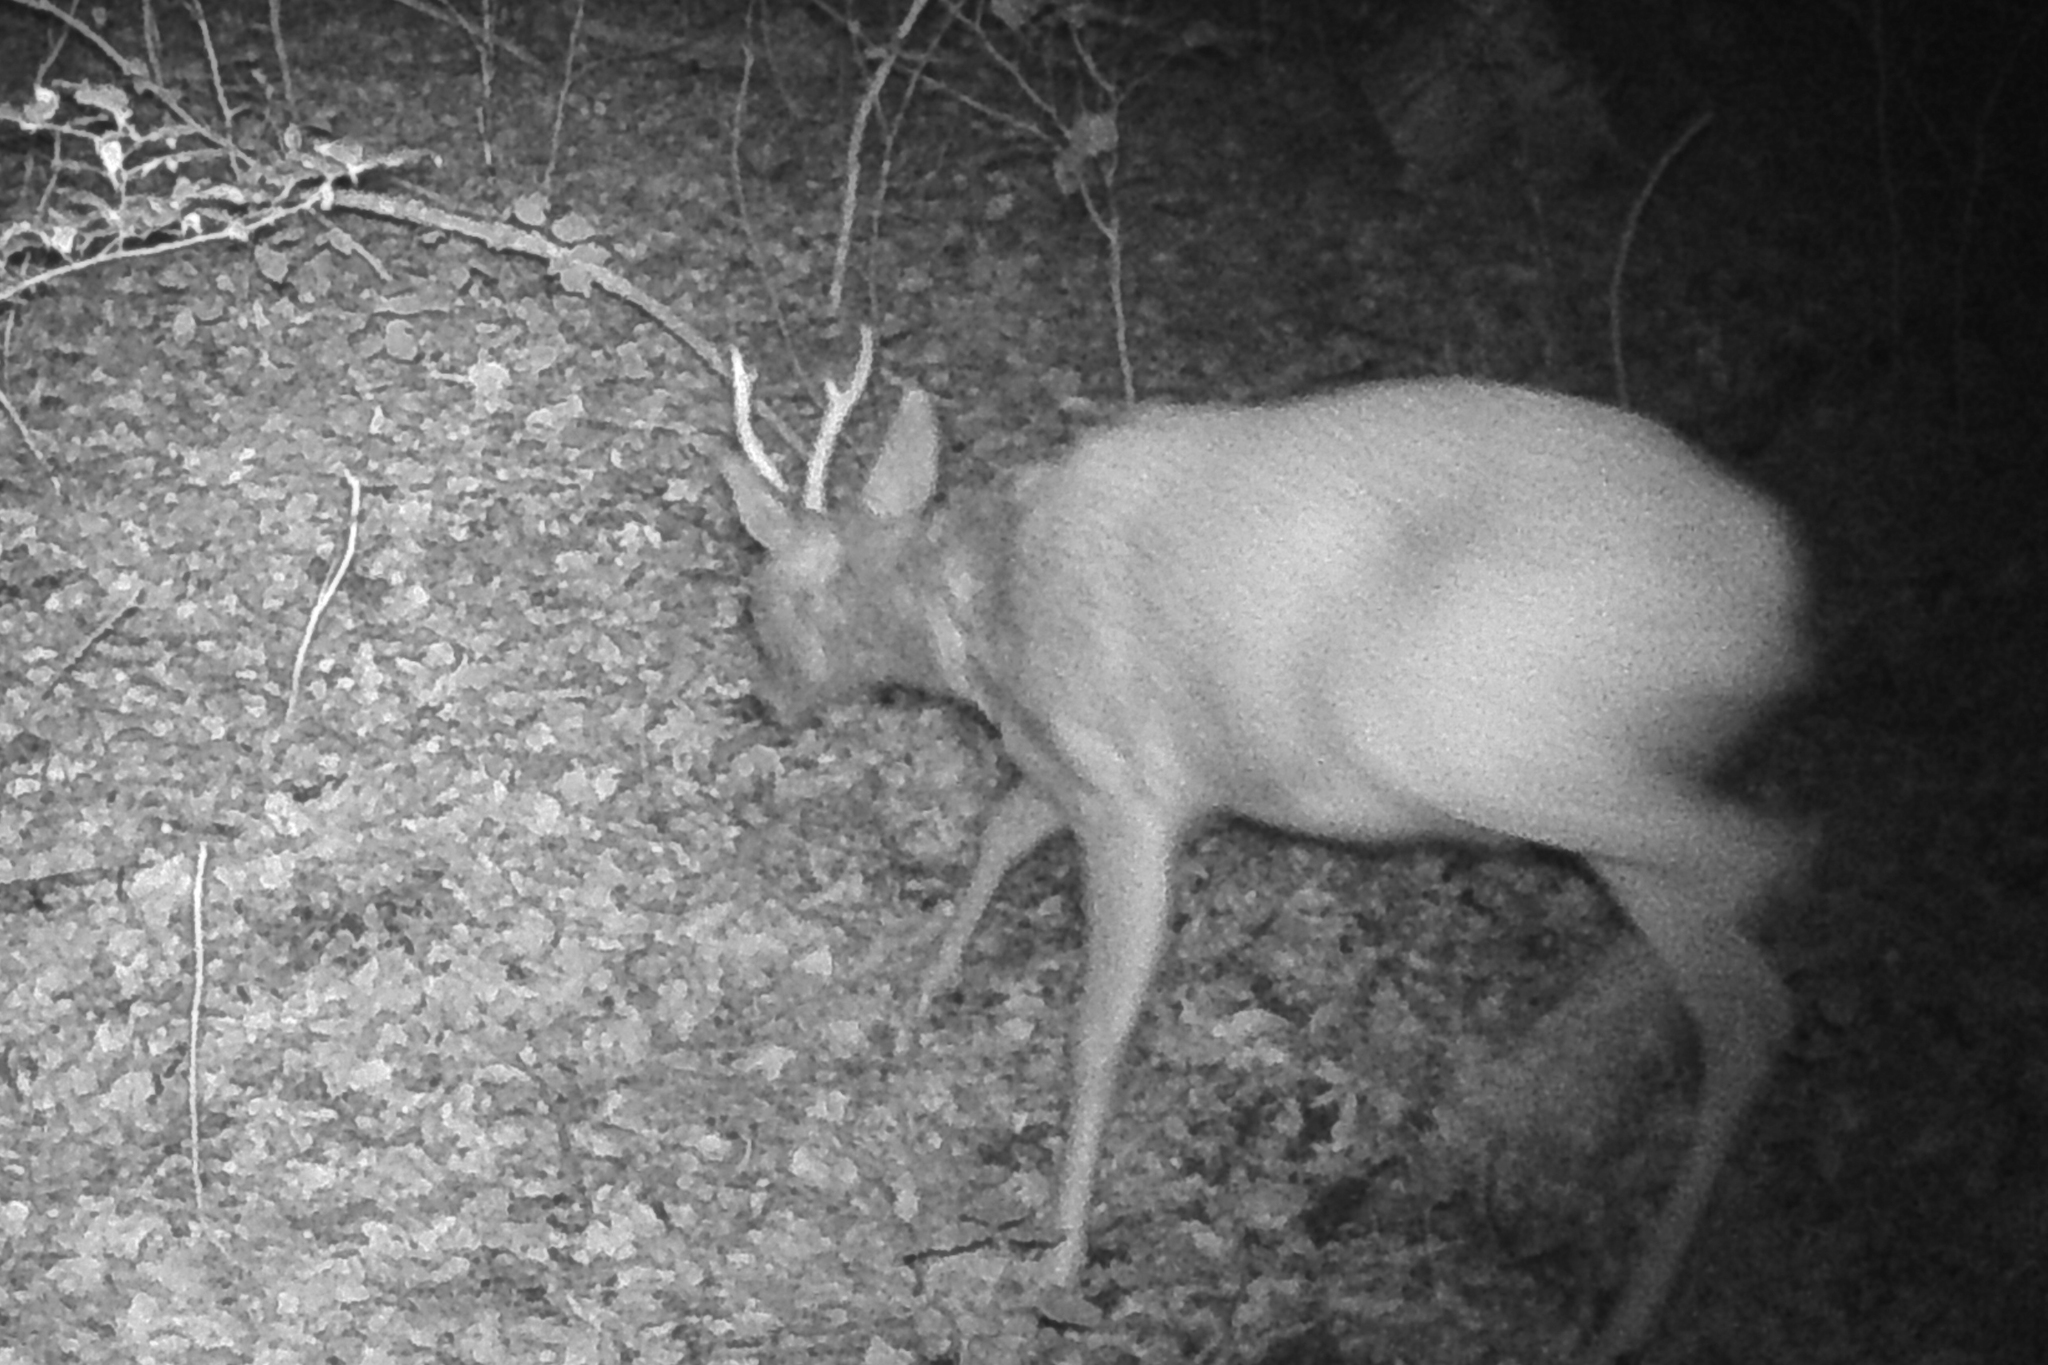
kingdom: Animalia
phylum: Chordata
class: Mammalia
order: Artiodactyla
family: Cervidae
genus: Capreolus
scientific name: Capreolus capreolus
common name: Western roe deer
